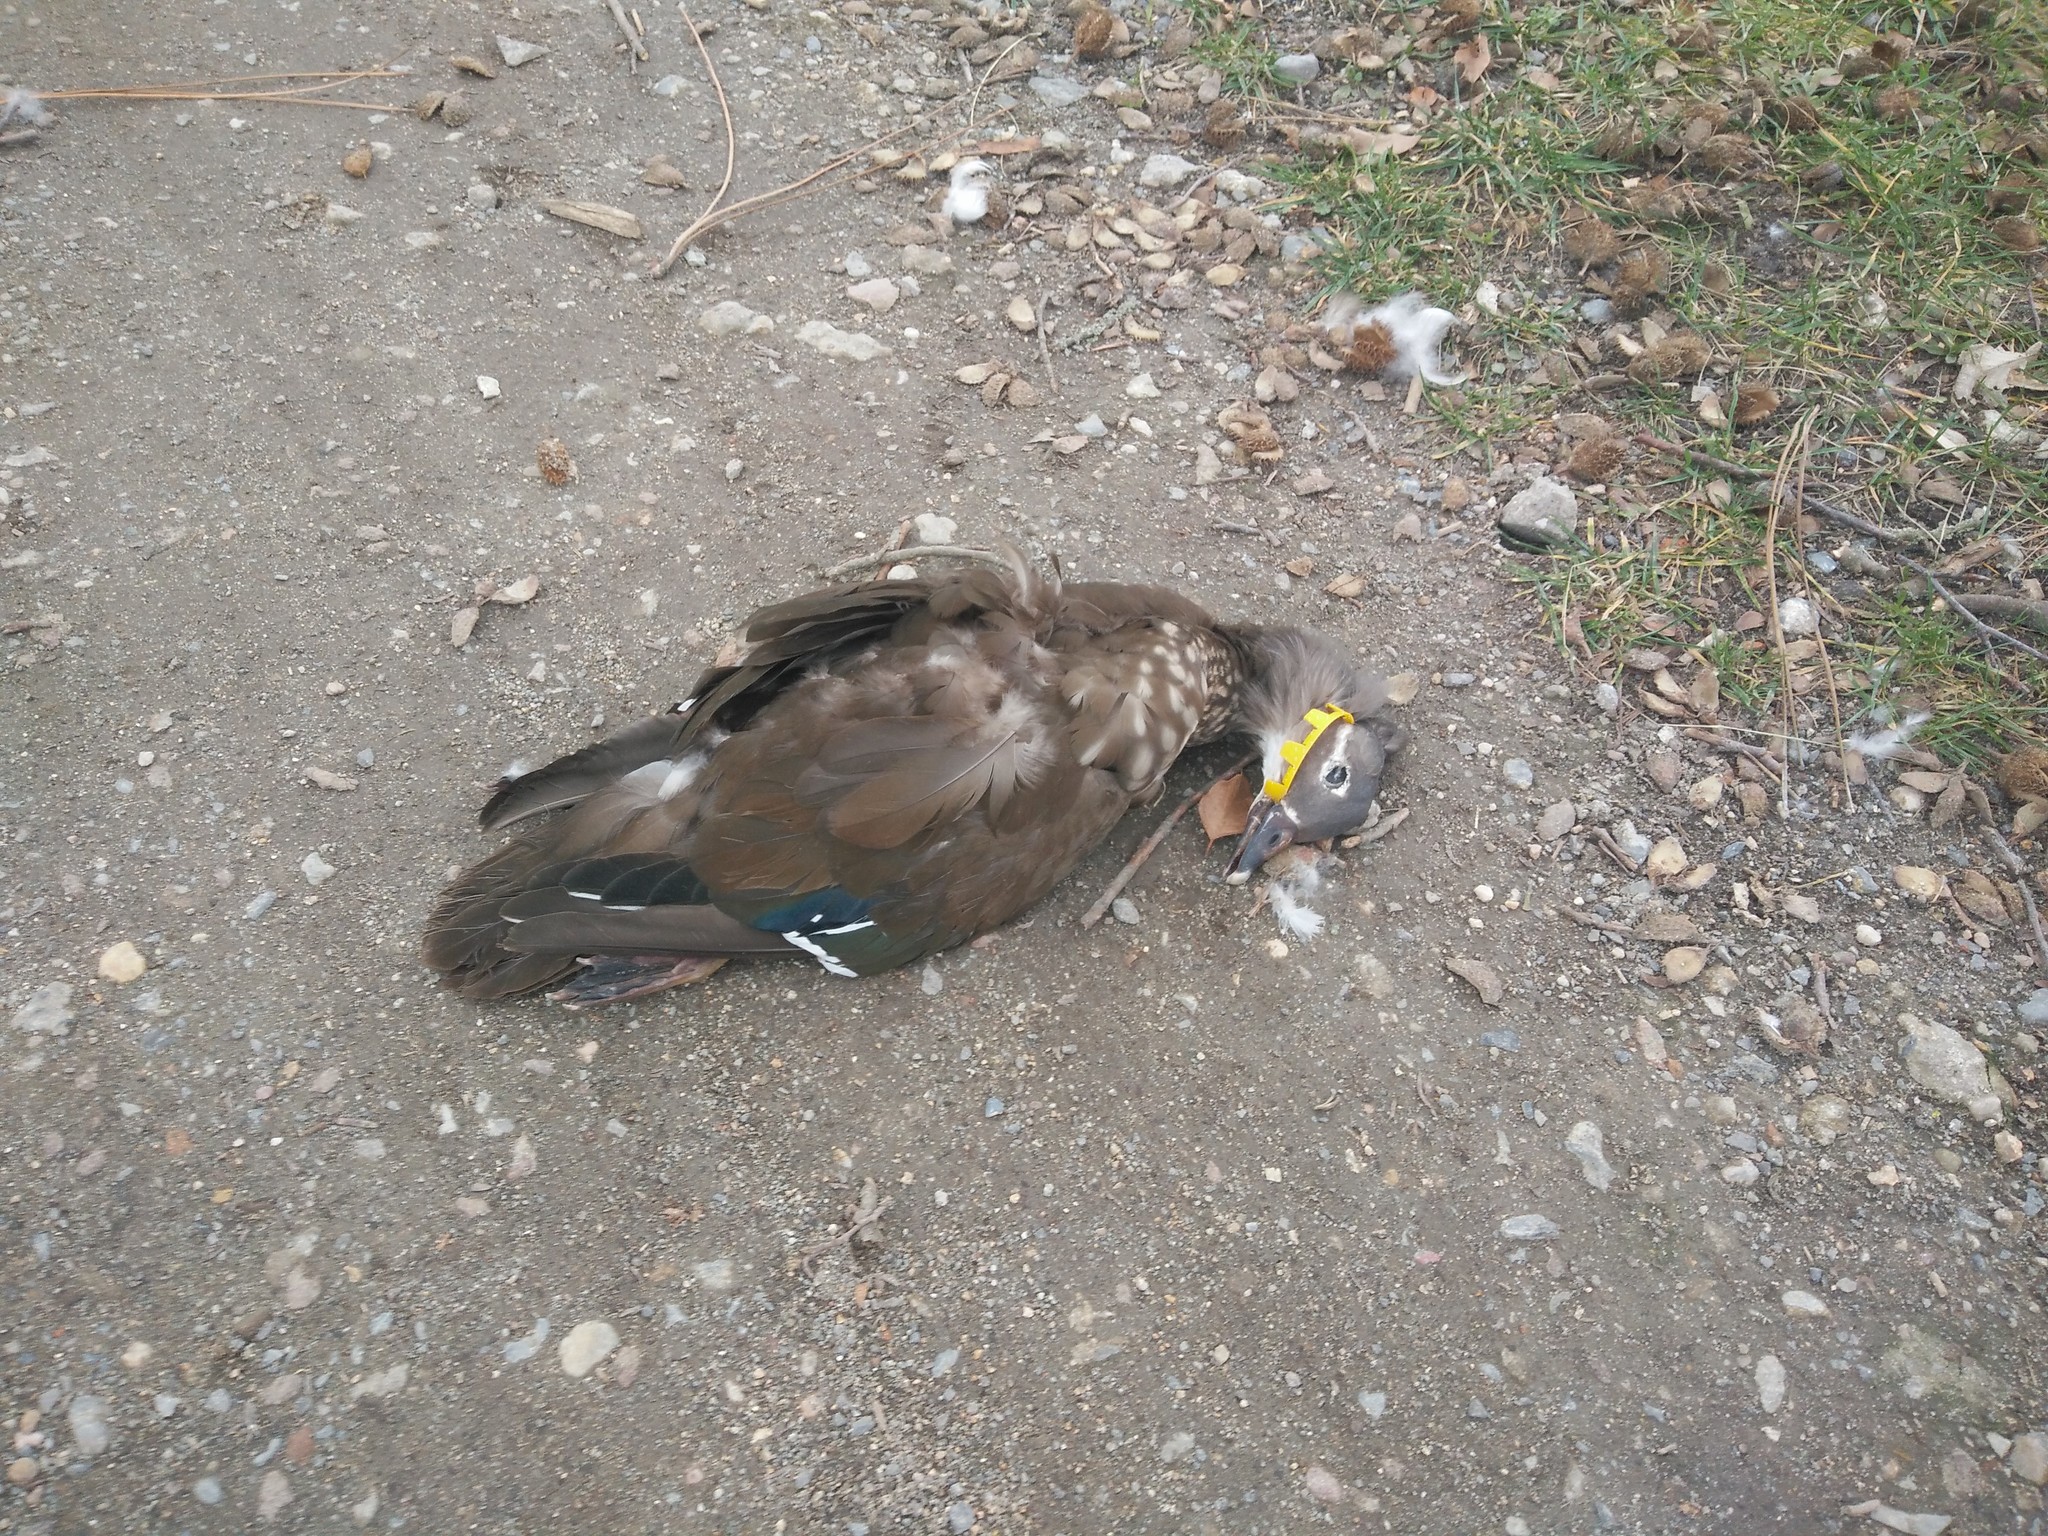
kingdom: Animalia
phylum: Chordata
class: Aves
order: Anseriformes
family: Anatidae
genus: Aix
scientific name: Aix galericulata
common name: Mandarin duck
